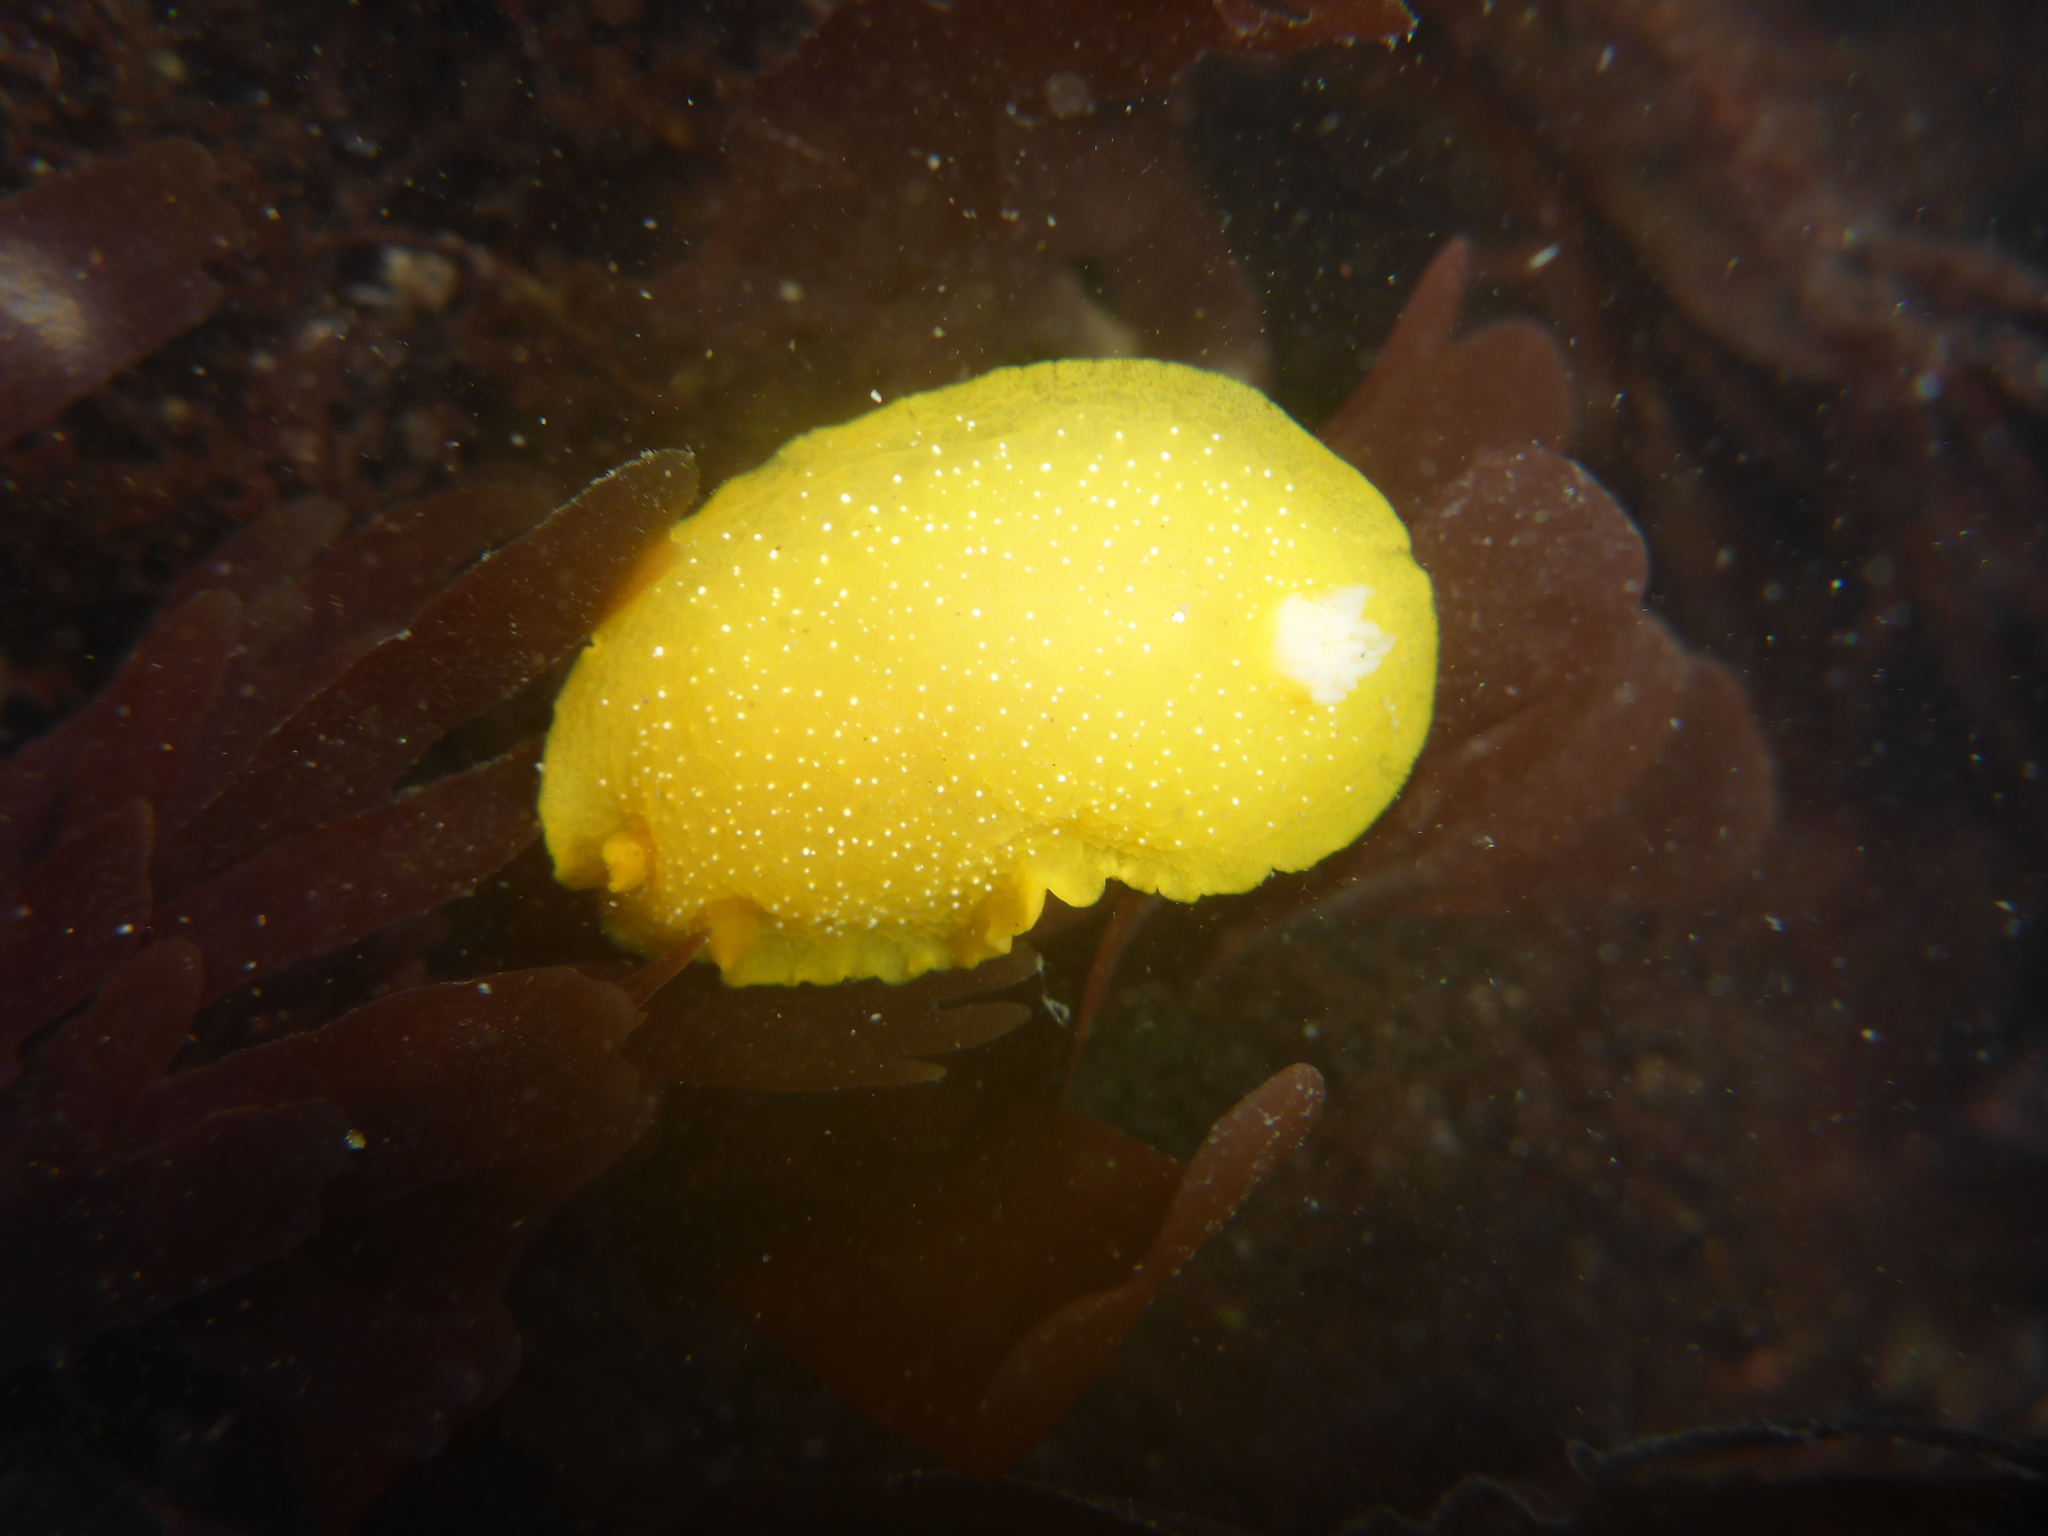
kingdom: Animalia
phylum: Mollusca
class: Gastropoda
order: Nudibranchia
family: Dendrodorididae
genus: Doriopsilla
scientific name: Doriopsilla fulva
